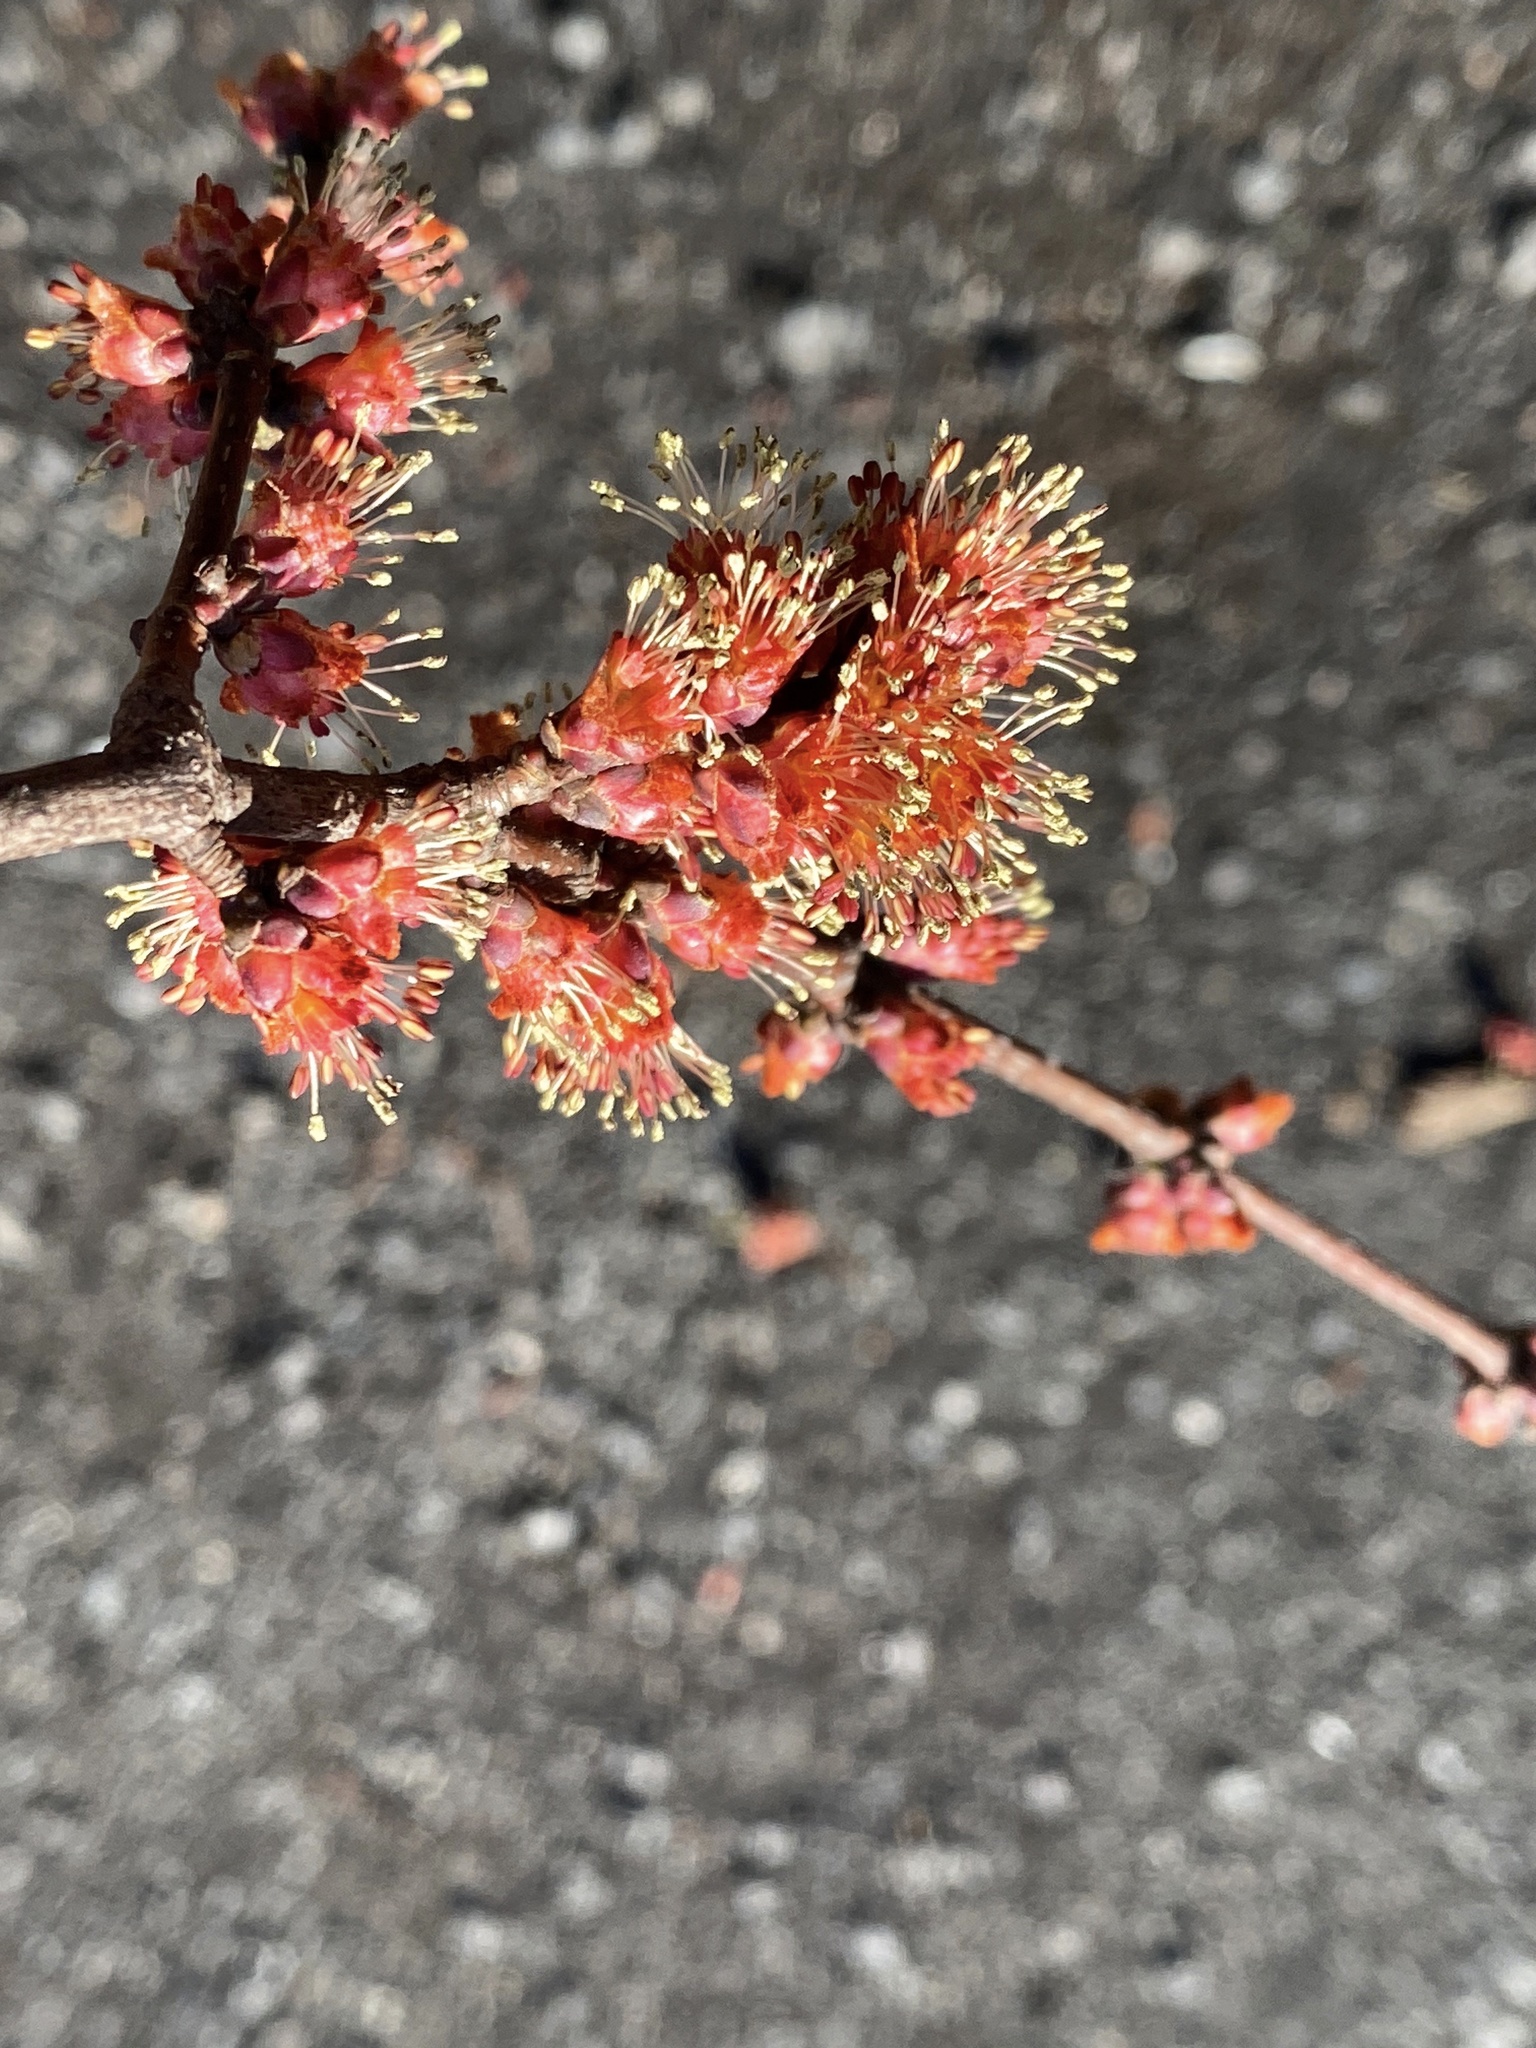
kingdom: Plantae
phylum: Tracheophyta
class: Magnoliopsida
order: Sapindales
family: Sapindaceae
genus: Acer
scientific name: Acer saccharinum
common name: Silver maple
